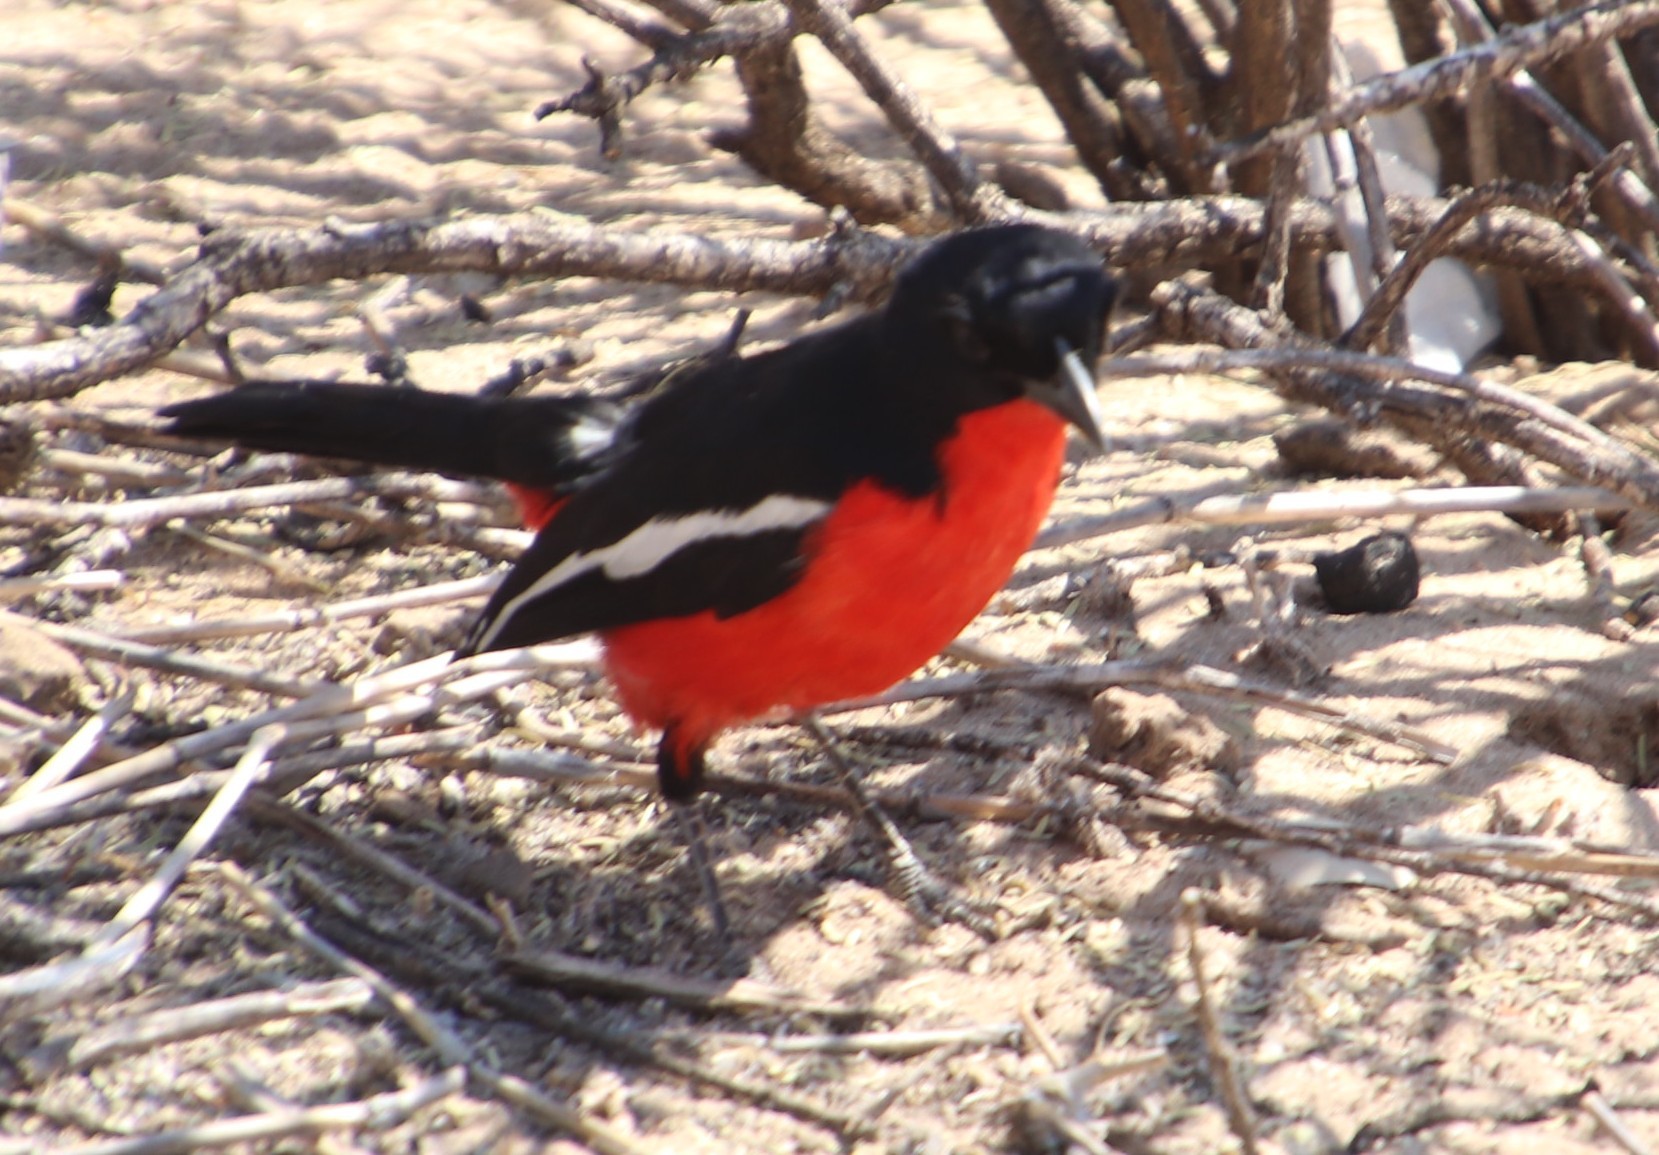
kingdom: Animalia
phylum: Chordata
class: Aves
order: Passeriformes
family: Malaconotidae
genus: Laniarius
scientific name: Laniarius atrococcineus
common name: Crimson-breasted shrike
